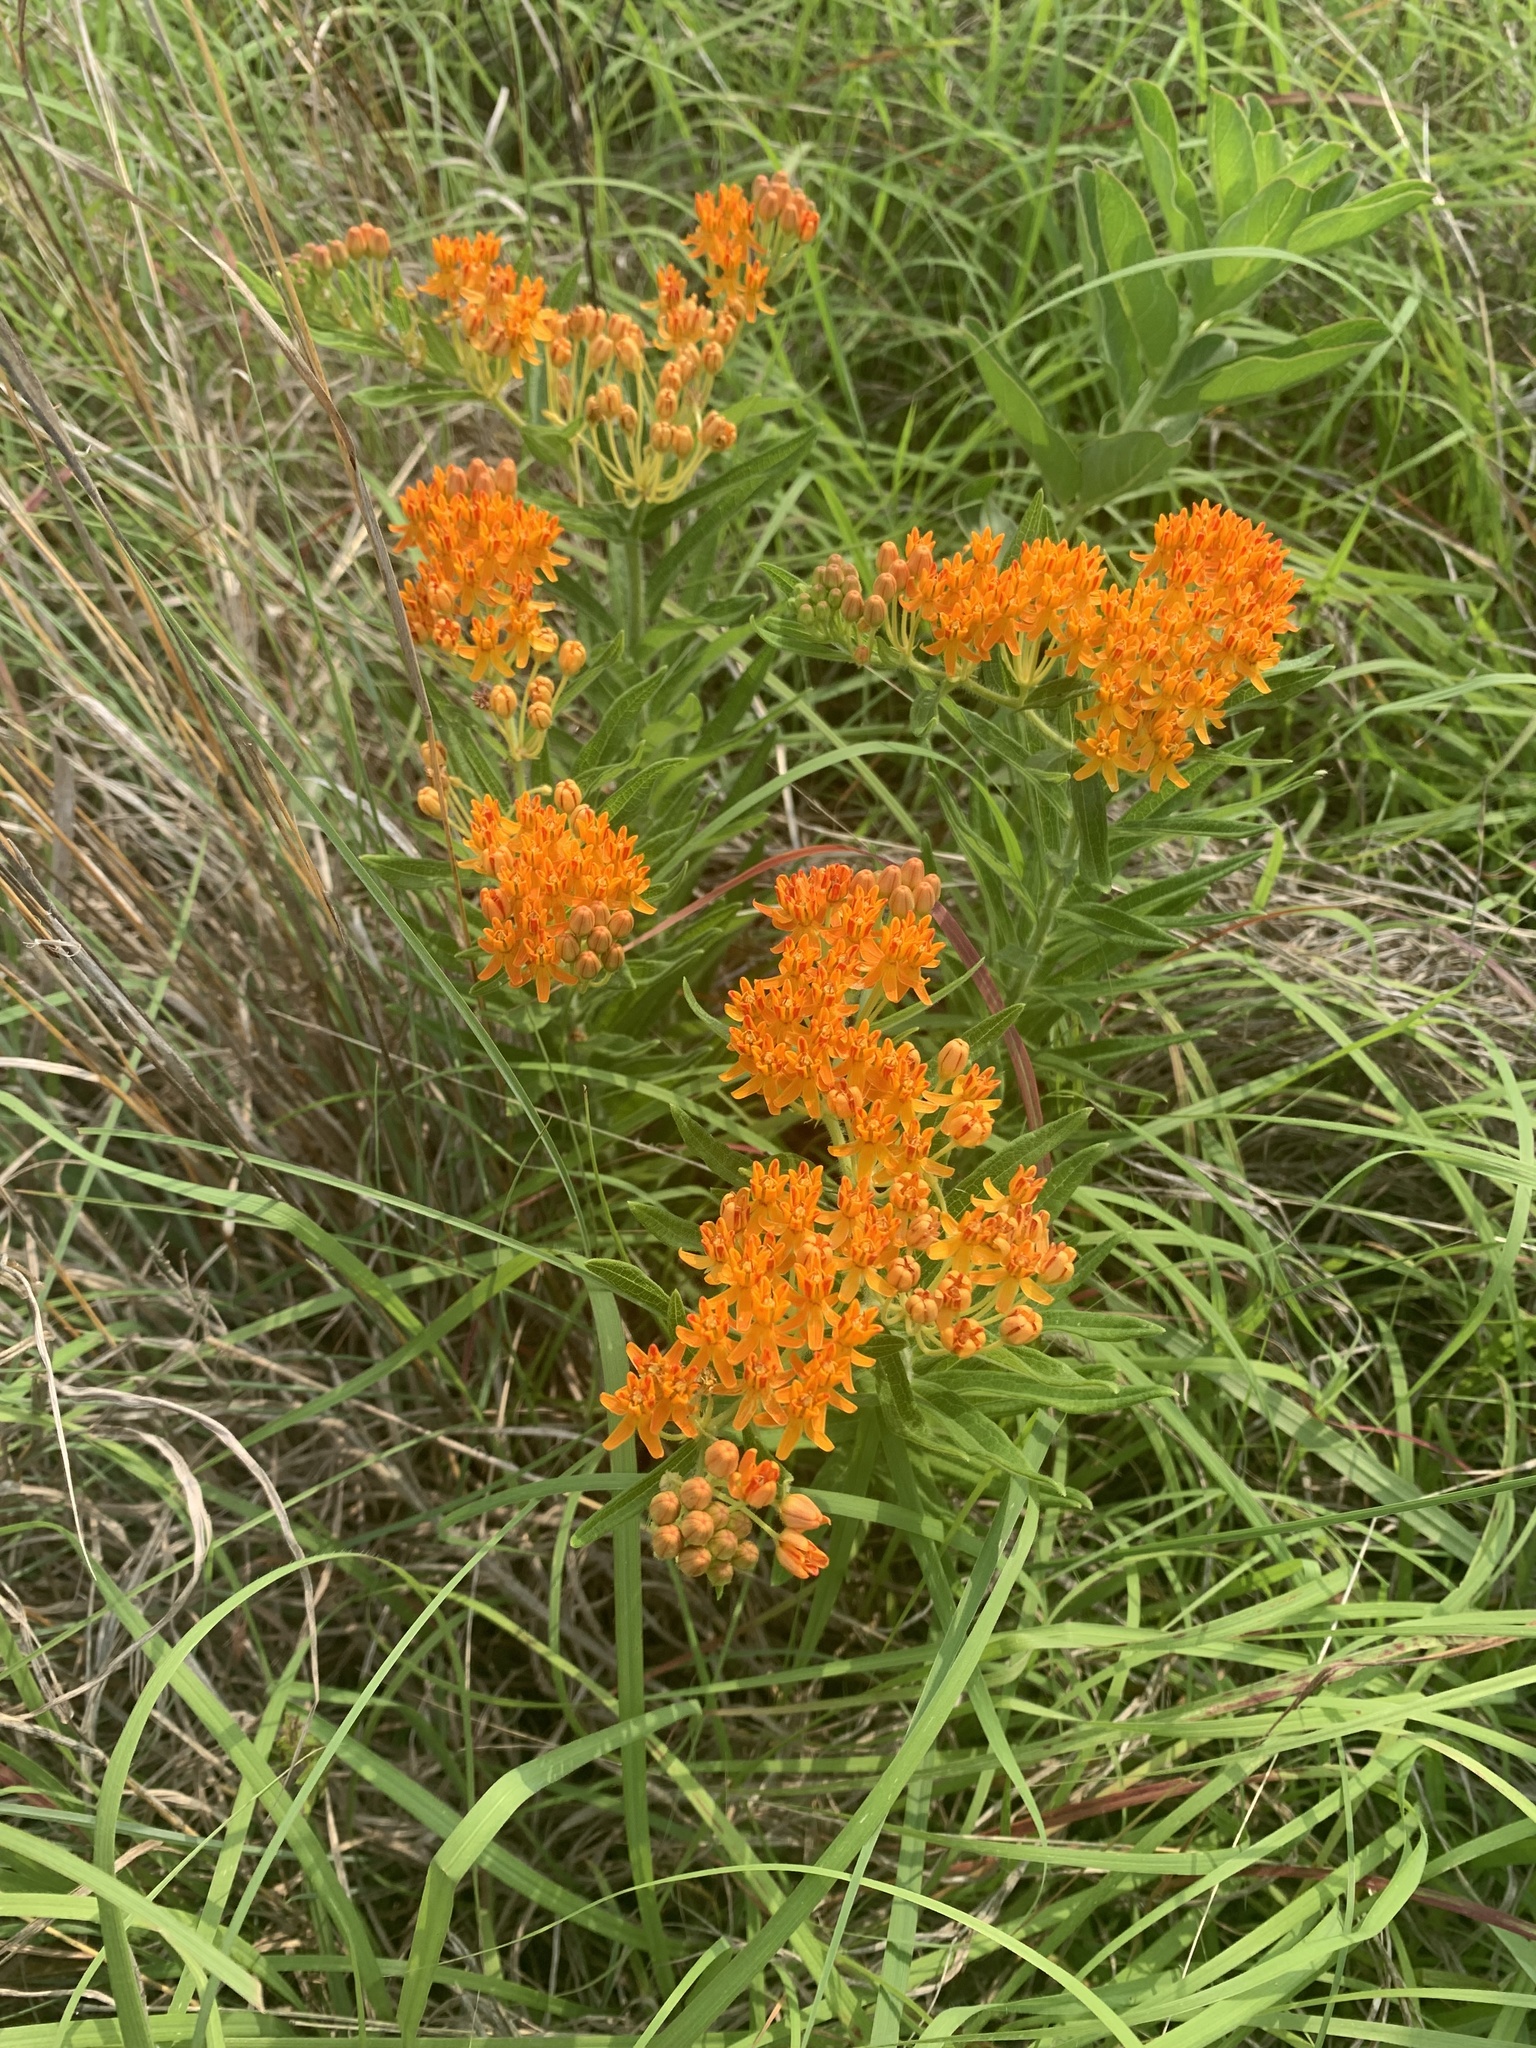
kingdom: Plantae
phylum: Tracheophyta
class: Magnoliopsida
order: Gentianales
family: Apocynaceae
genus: Asclepias
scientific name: Asclepias tuberosa
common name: Butterfly milkweed
